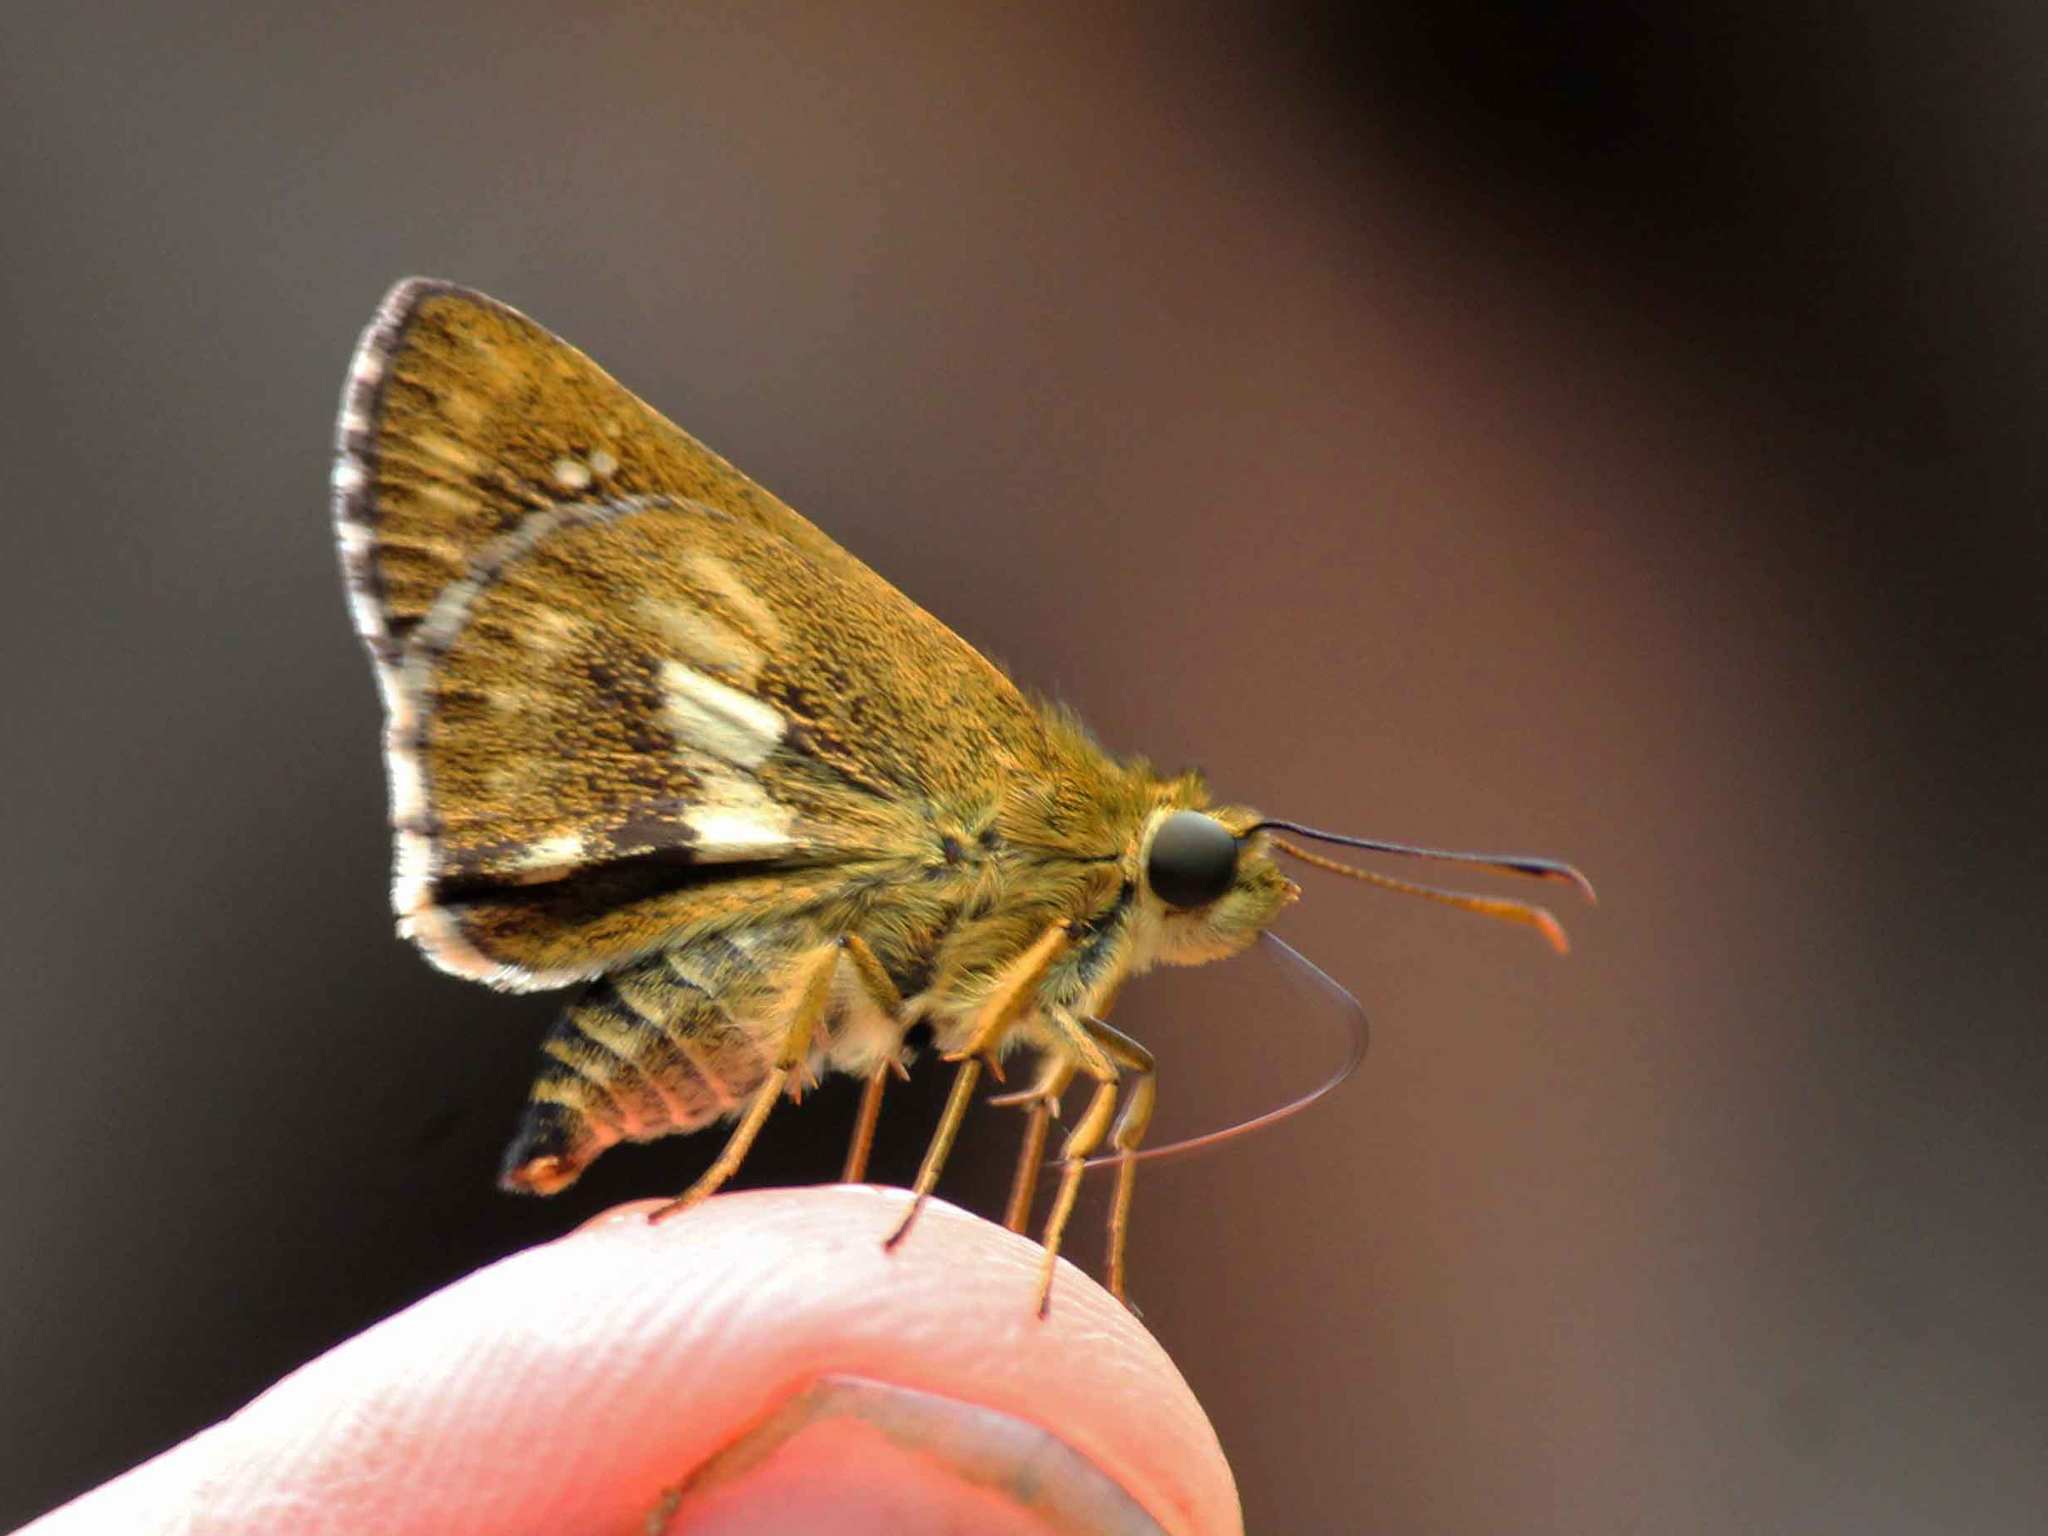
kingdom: Animalia
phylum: Arthropoda
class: Insecta
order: Lepidoptera
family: Hesperiidae
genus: Halpe
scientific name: Halpe homolea
